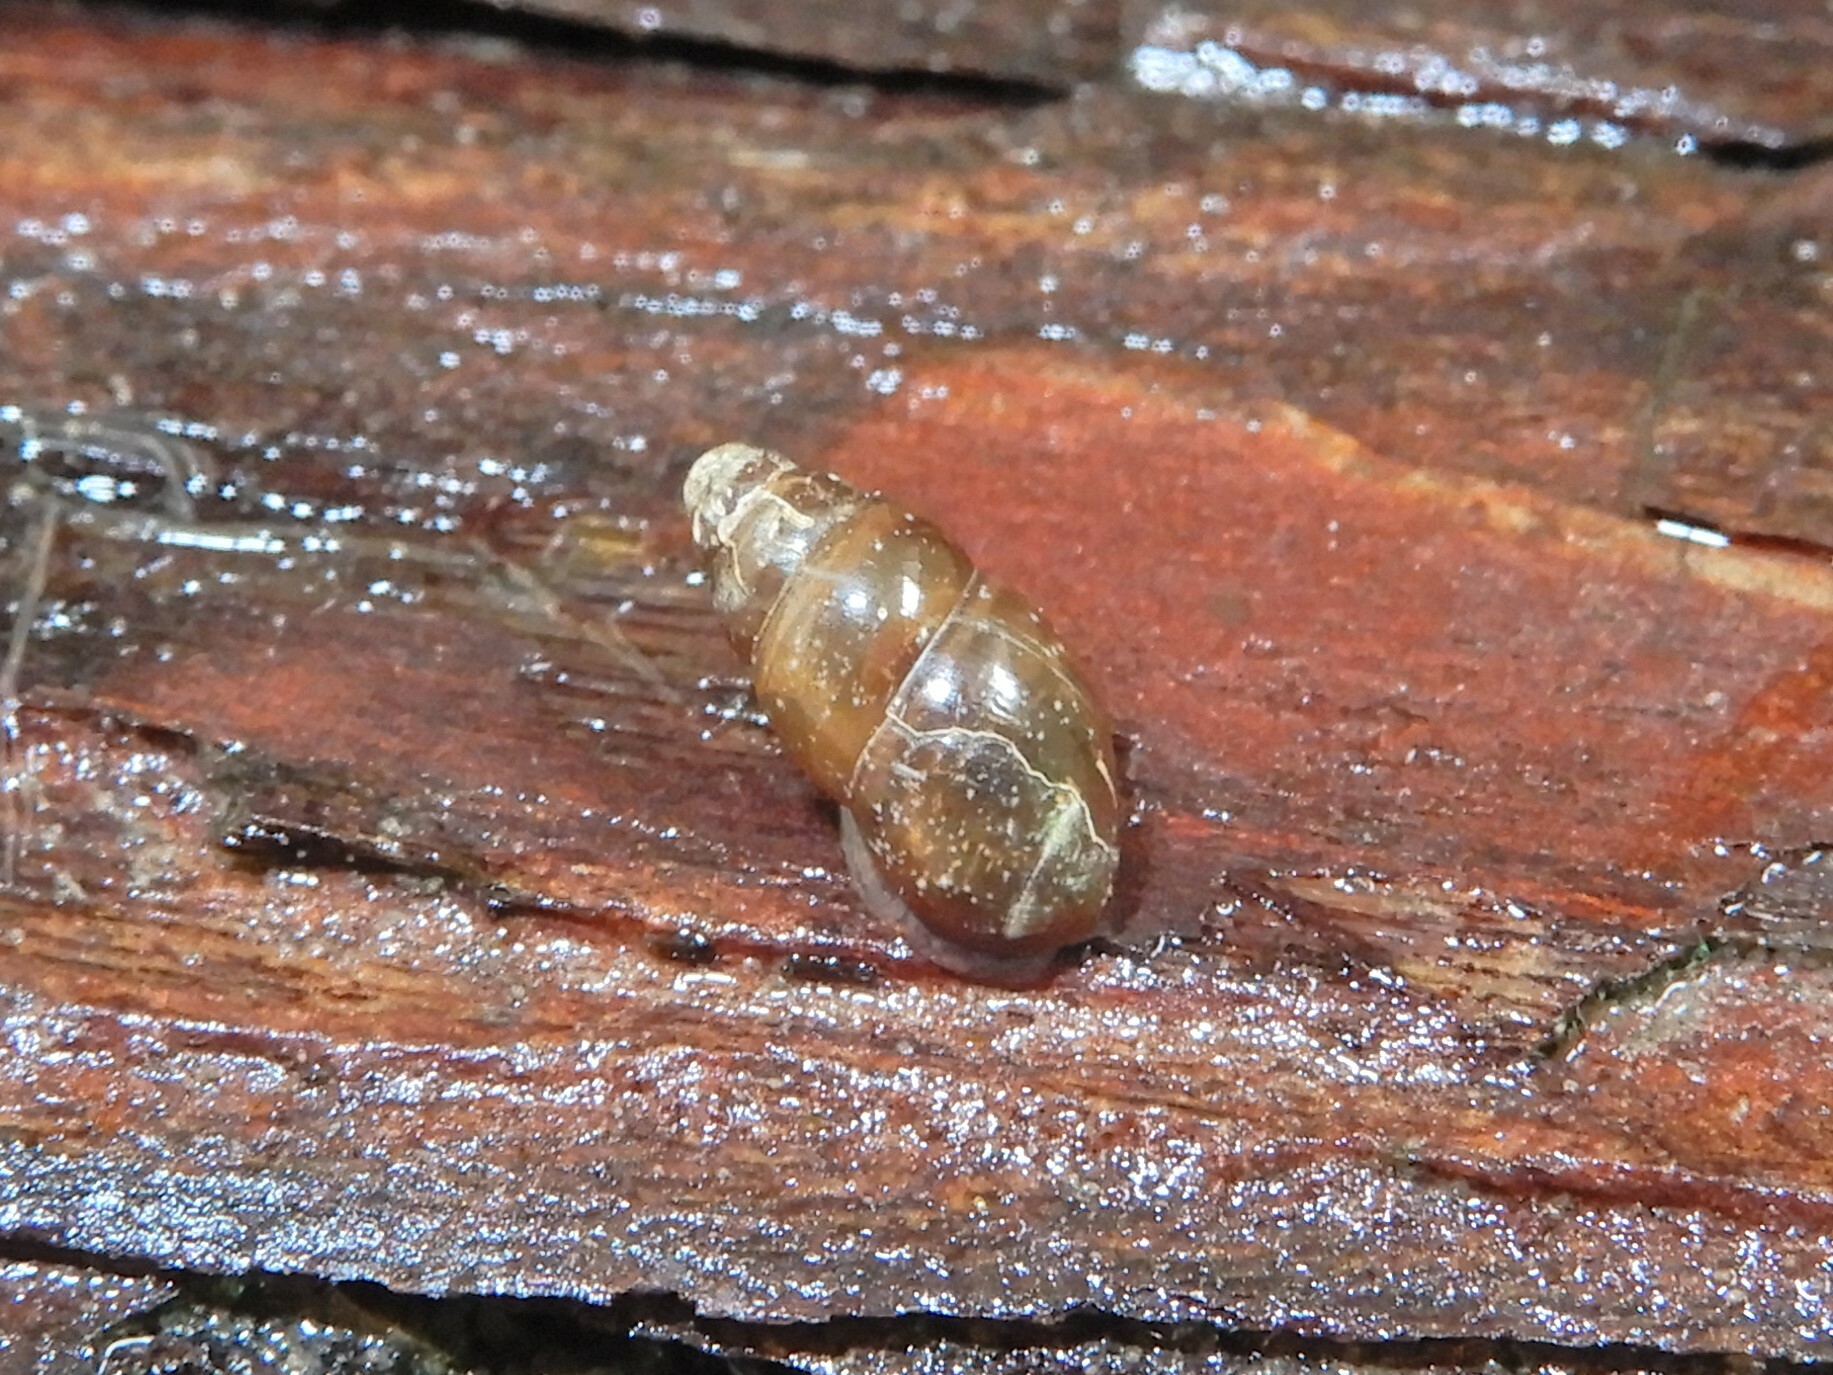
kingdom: Animalia
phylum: Mollusca
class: Gastropoda
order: Stylommatophora
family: Cochlicopidae
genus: Cochlicopa
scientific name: Cochlicopa lubrica
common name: Glossy pillar snail
